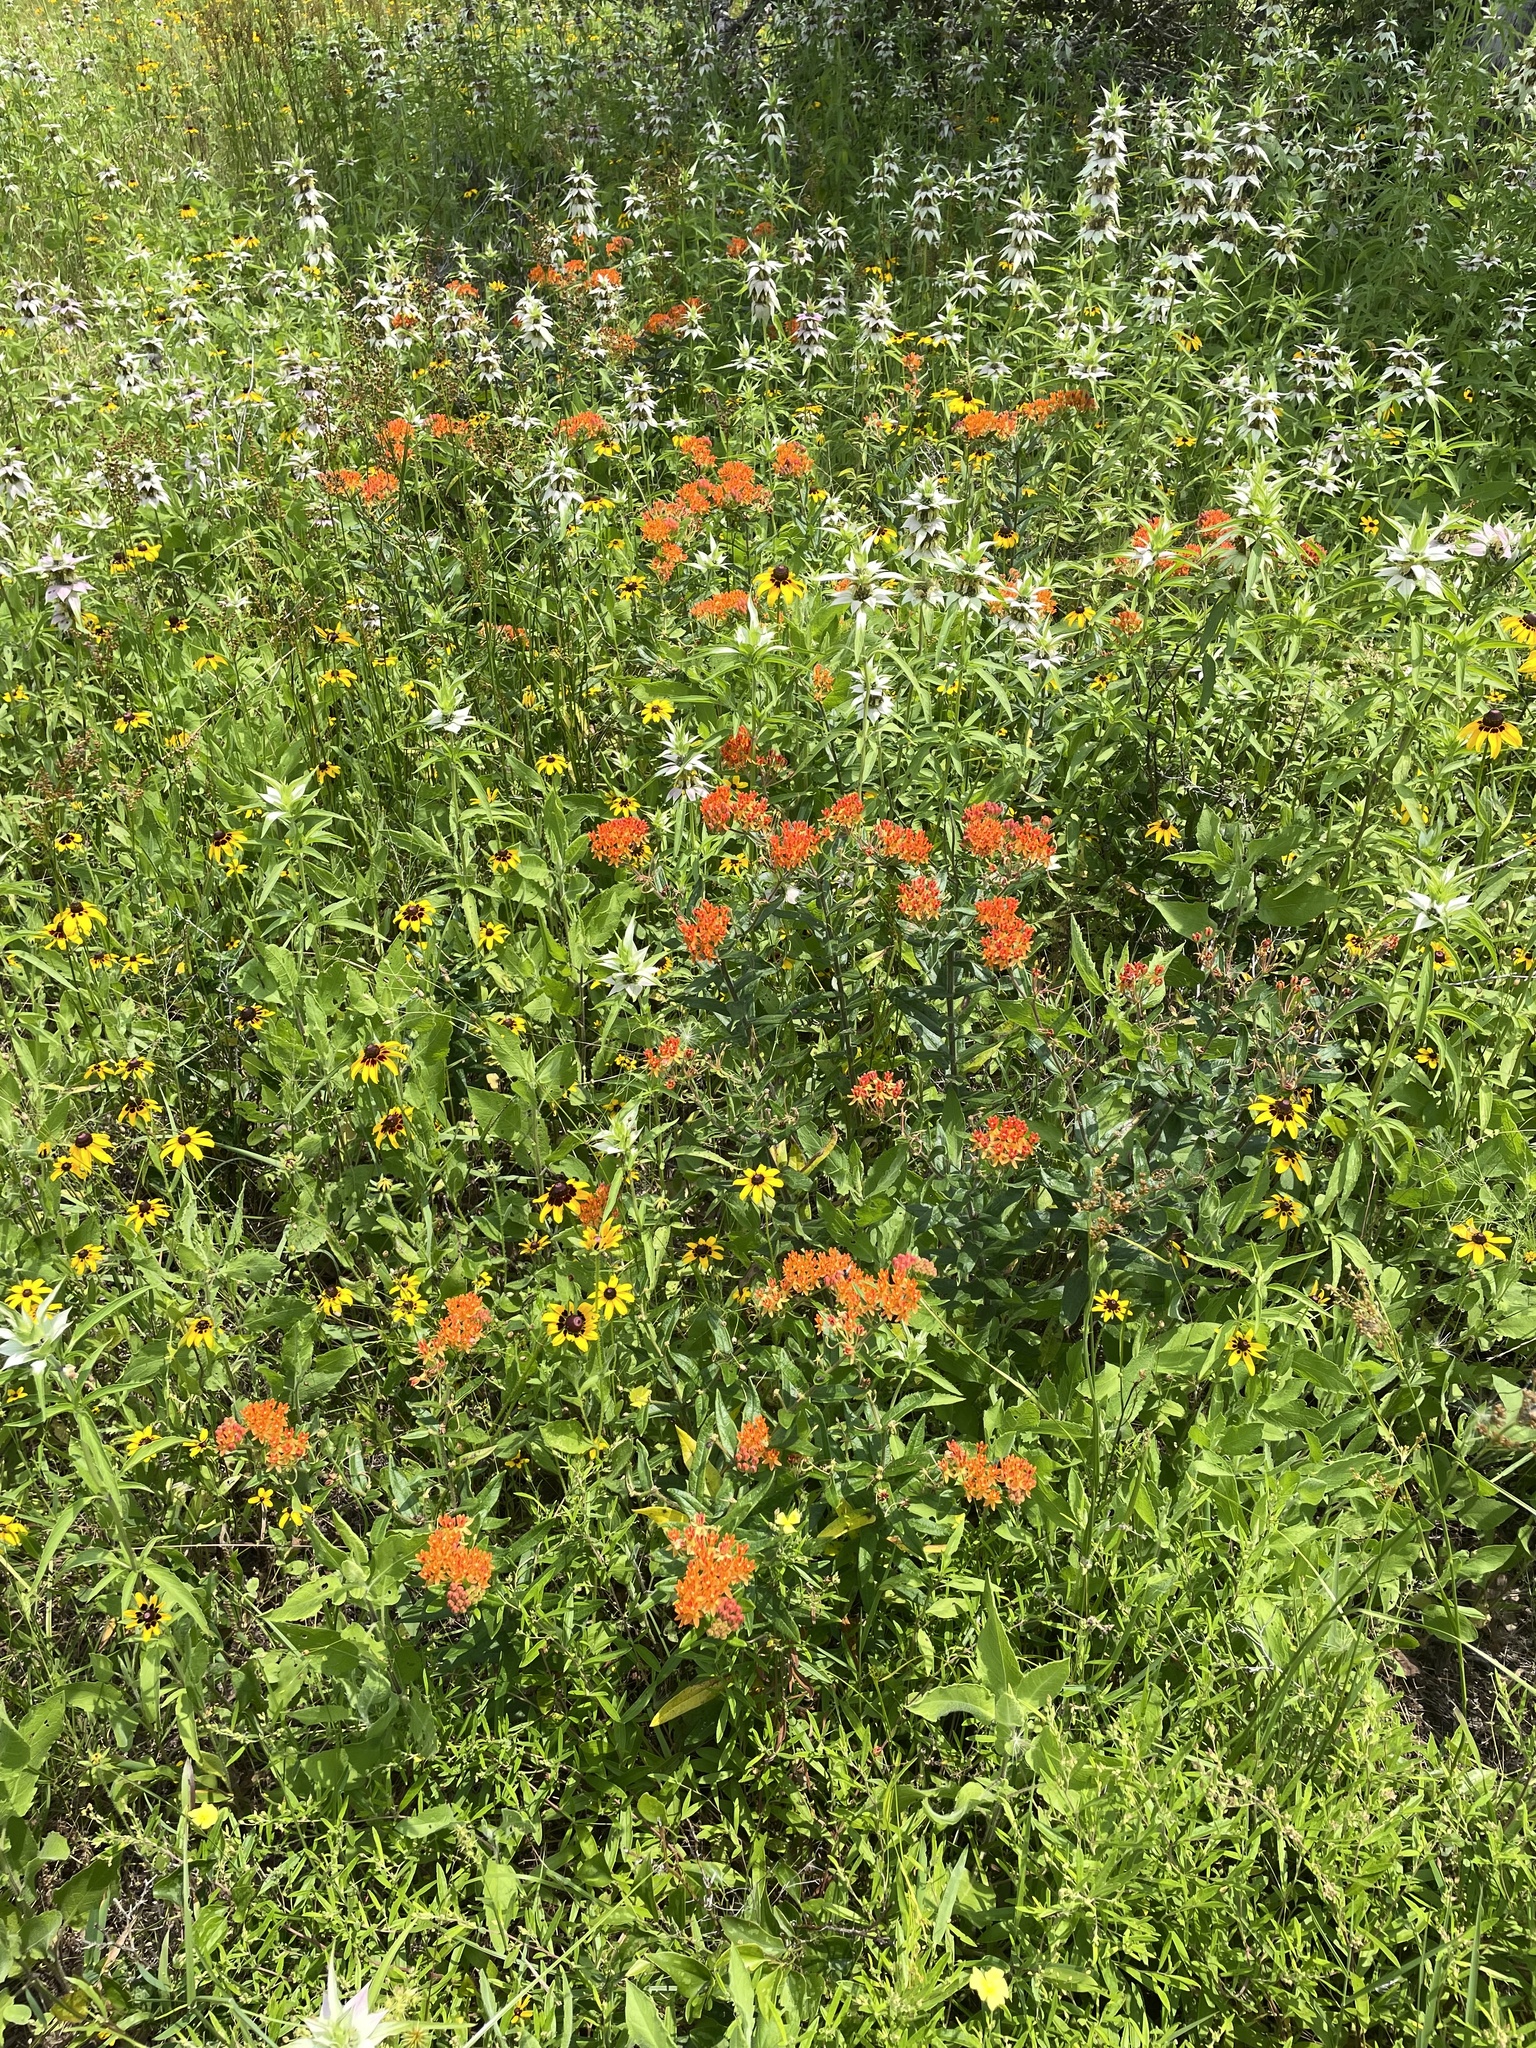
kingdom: Plantae
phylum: Tracheophyta
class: Magnoliopsida
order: Gentianales
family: Apocynaceae
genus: Asclepias
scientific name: Asclepias tuberosa
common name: Butterfly milkweed
